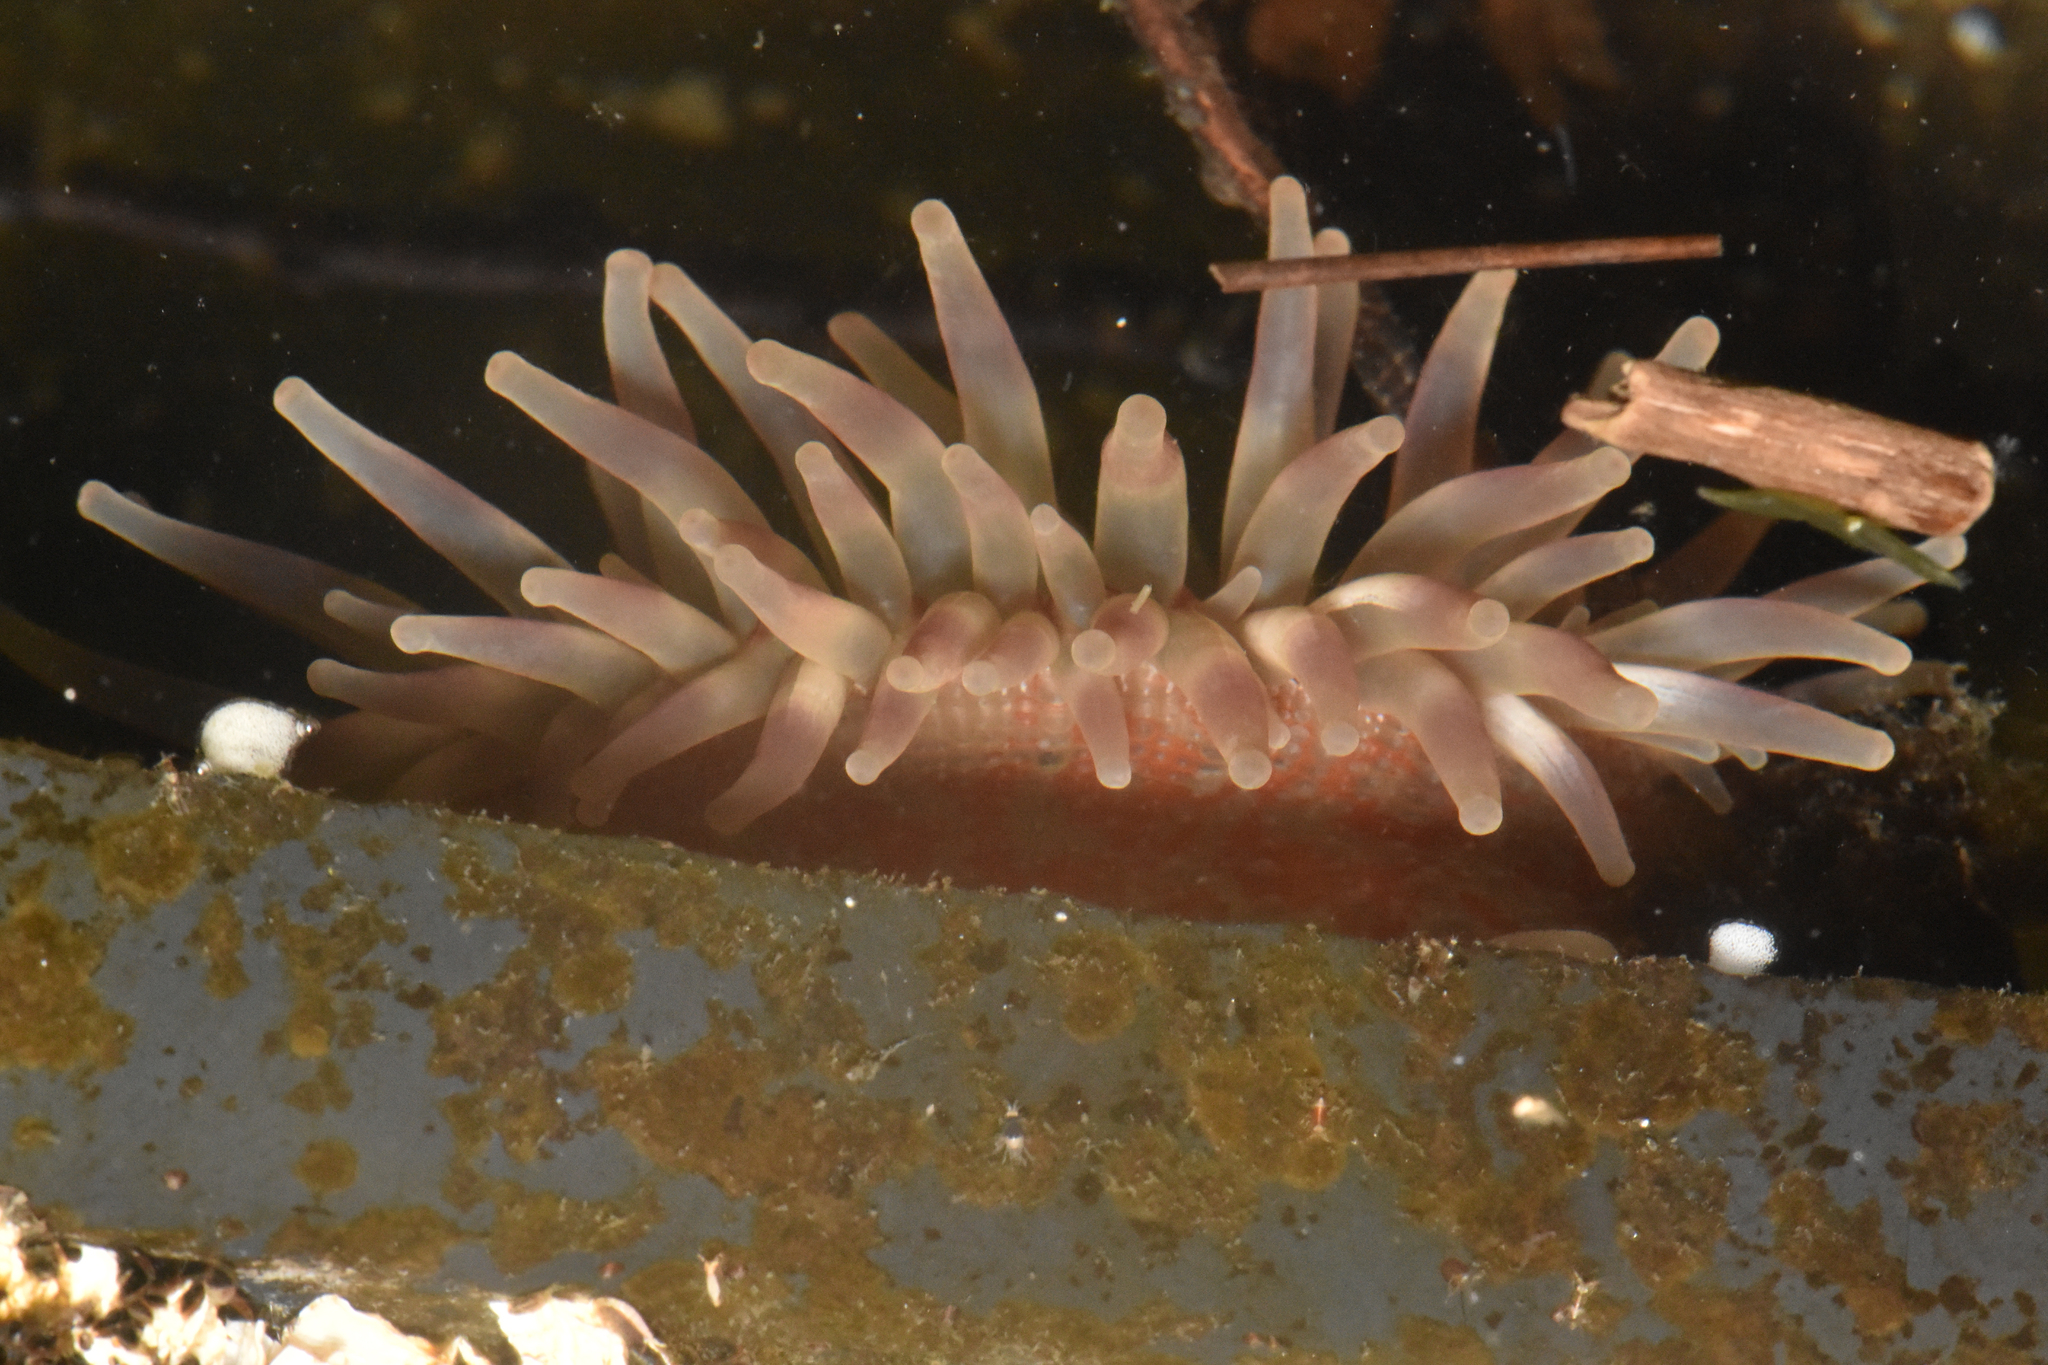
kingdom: Animalia
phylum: Cnidaria
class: Anthozoa
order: Actiniaria
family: Actiniidae
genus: Urticina
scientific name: Urticina grebelnyi
